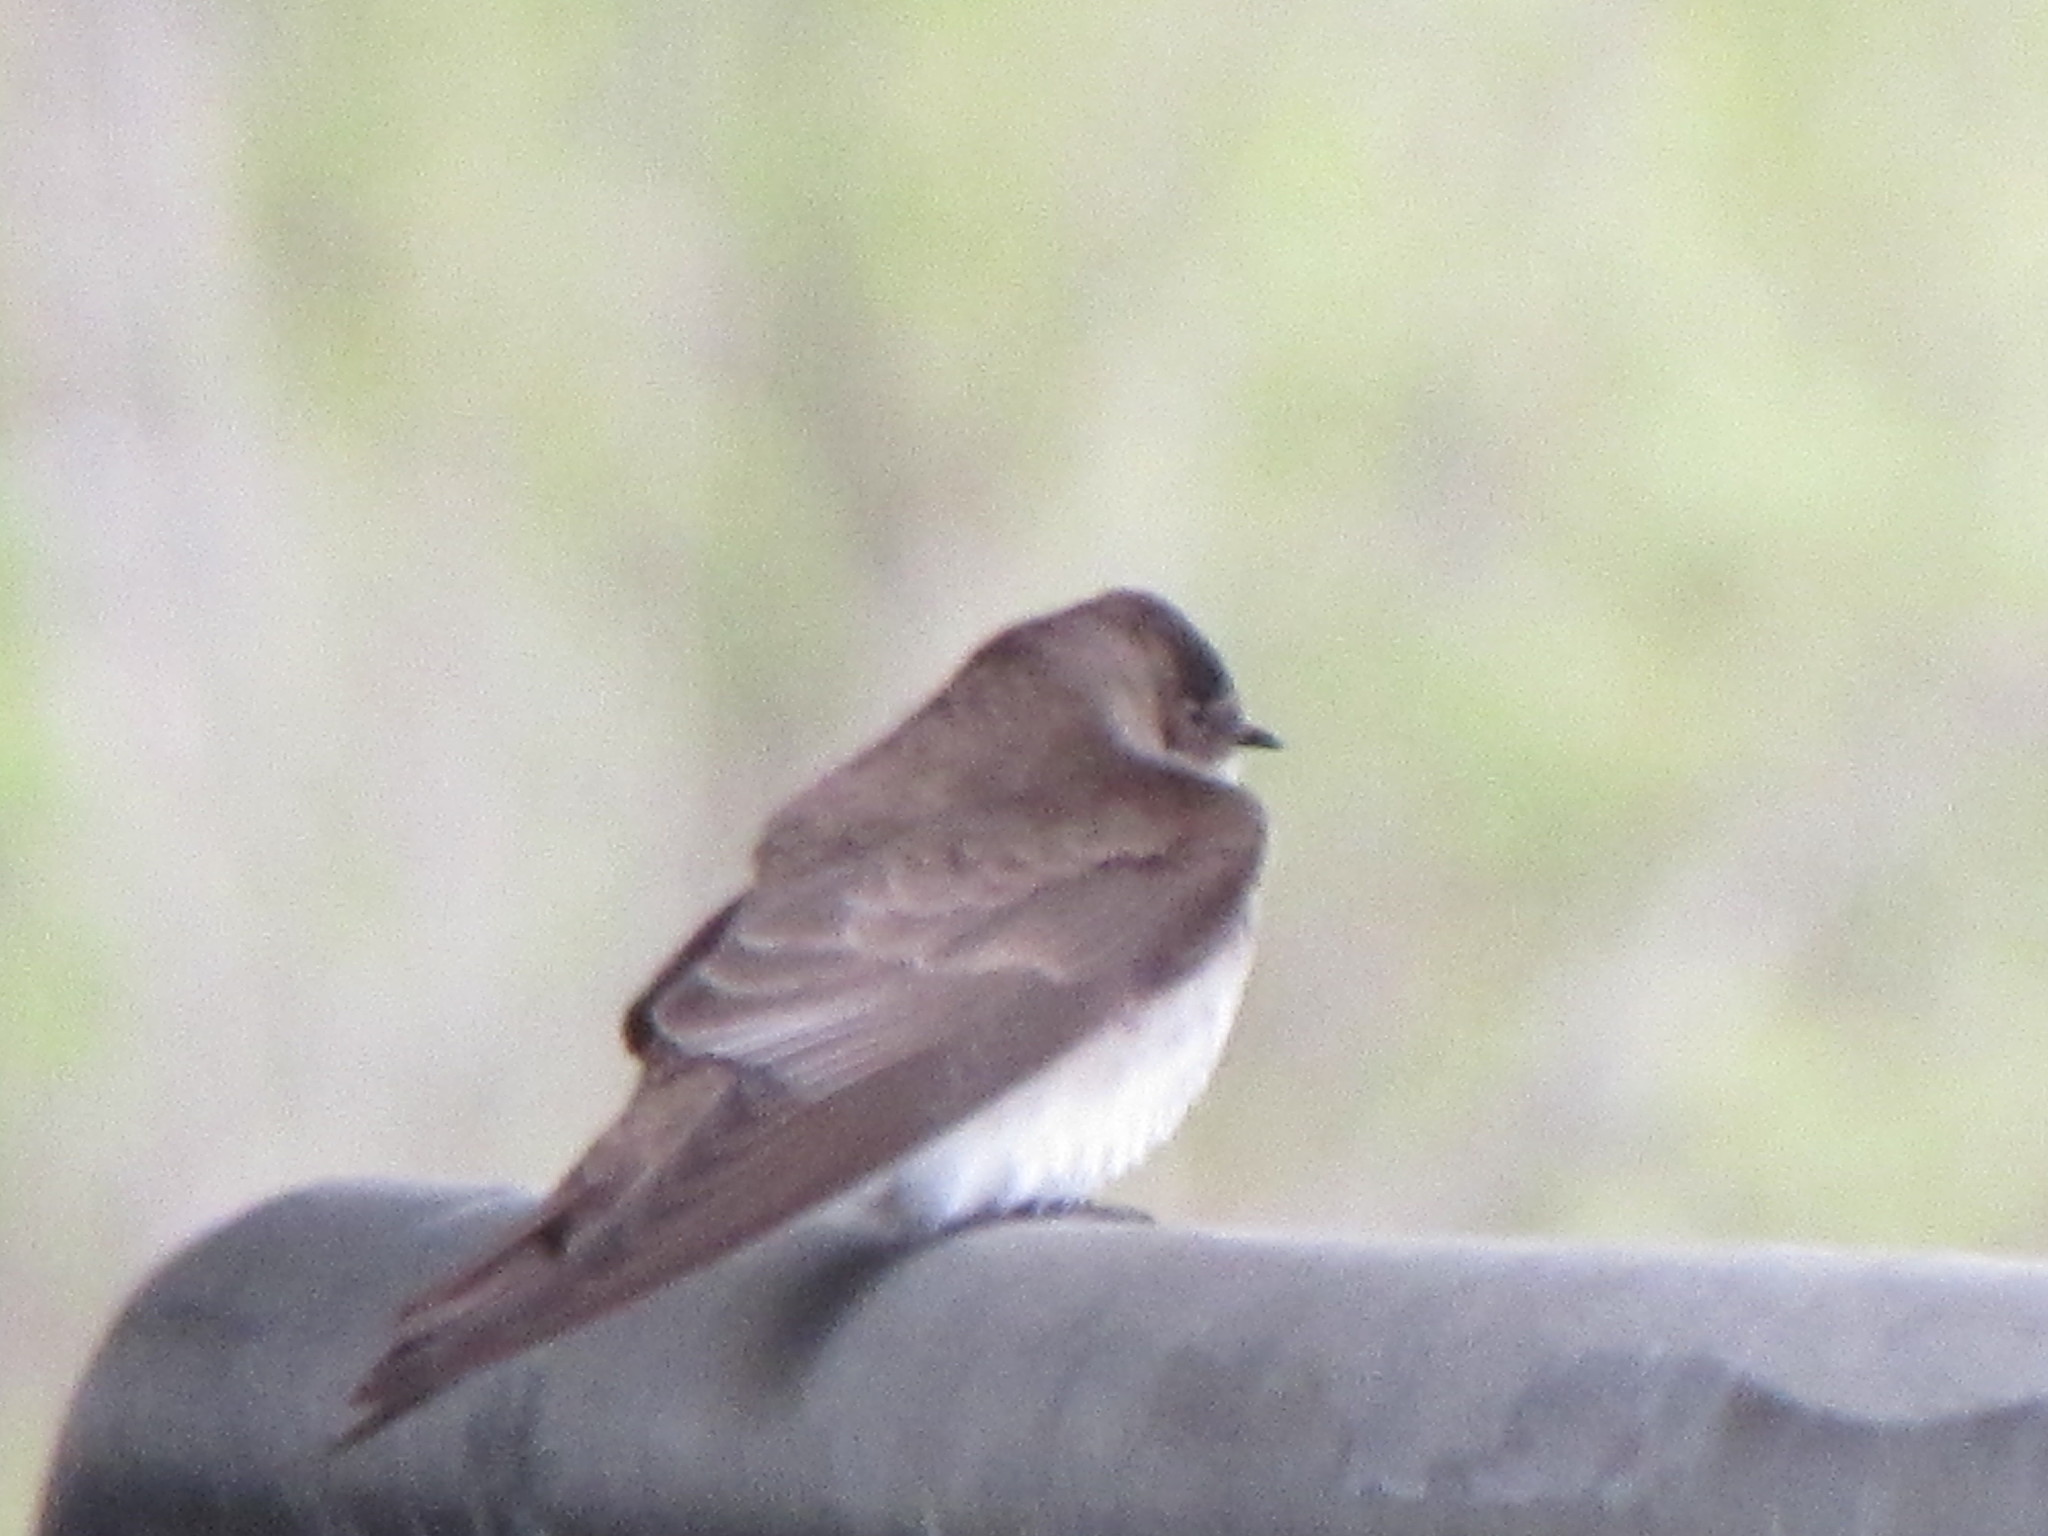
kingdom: Animalia
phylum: Chordata
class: Aves
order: Passeriformes
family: Hirundinidae
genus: Stelgidopteryx
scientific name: Stelgidopteryx serripennis
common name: Northern rough-winged swallow
